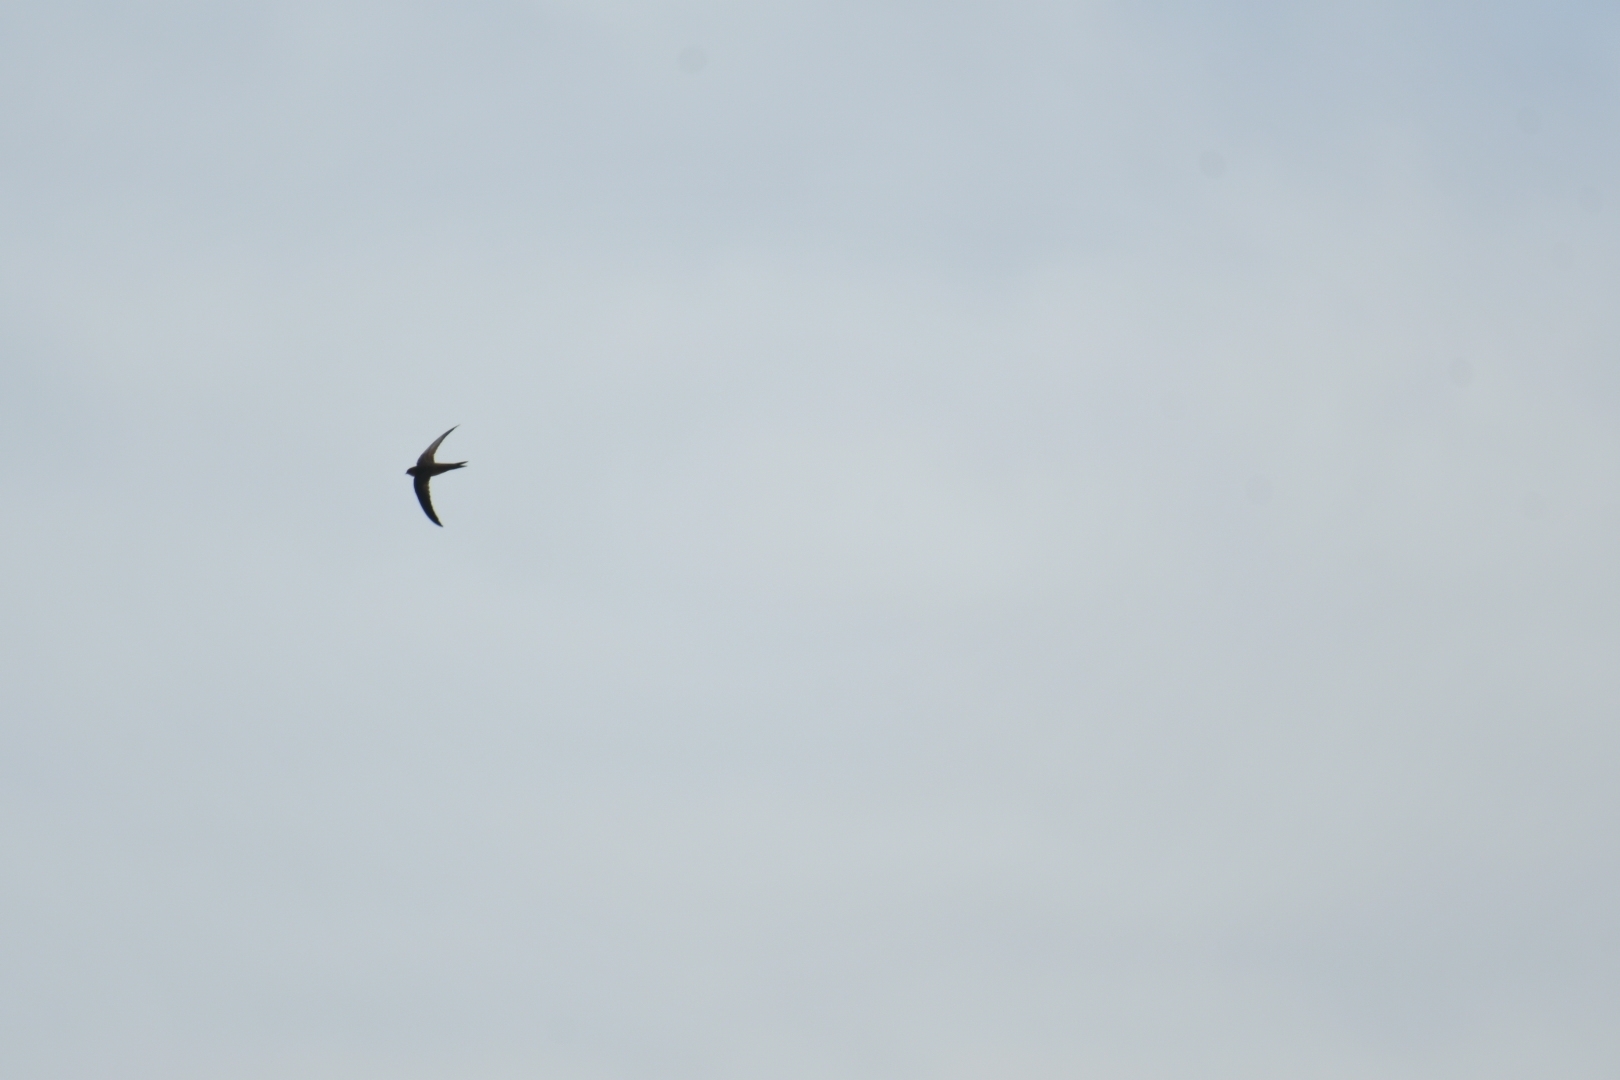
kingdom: Animalia
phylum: Chordata
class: Aves
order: Apodiformes
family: Apodidae
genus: Apus
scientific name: Apus unicolor
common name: Plain swift
